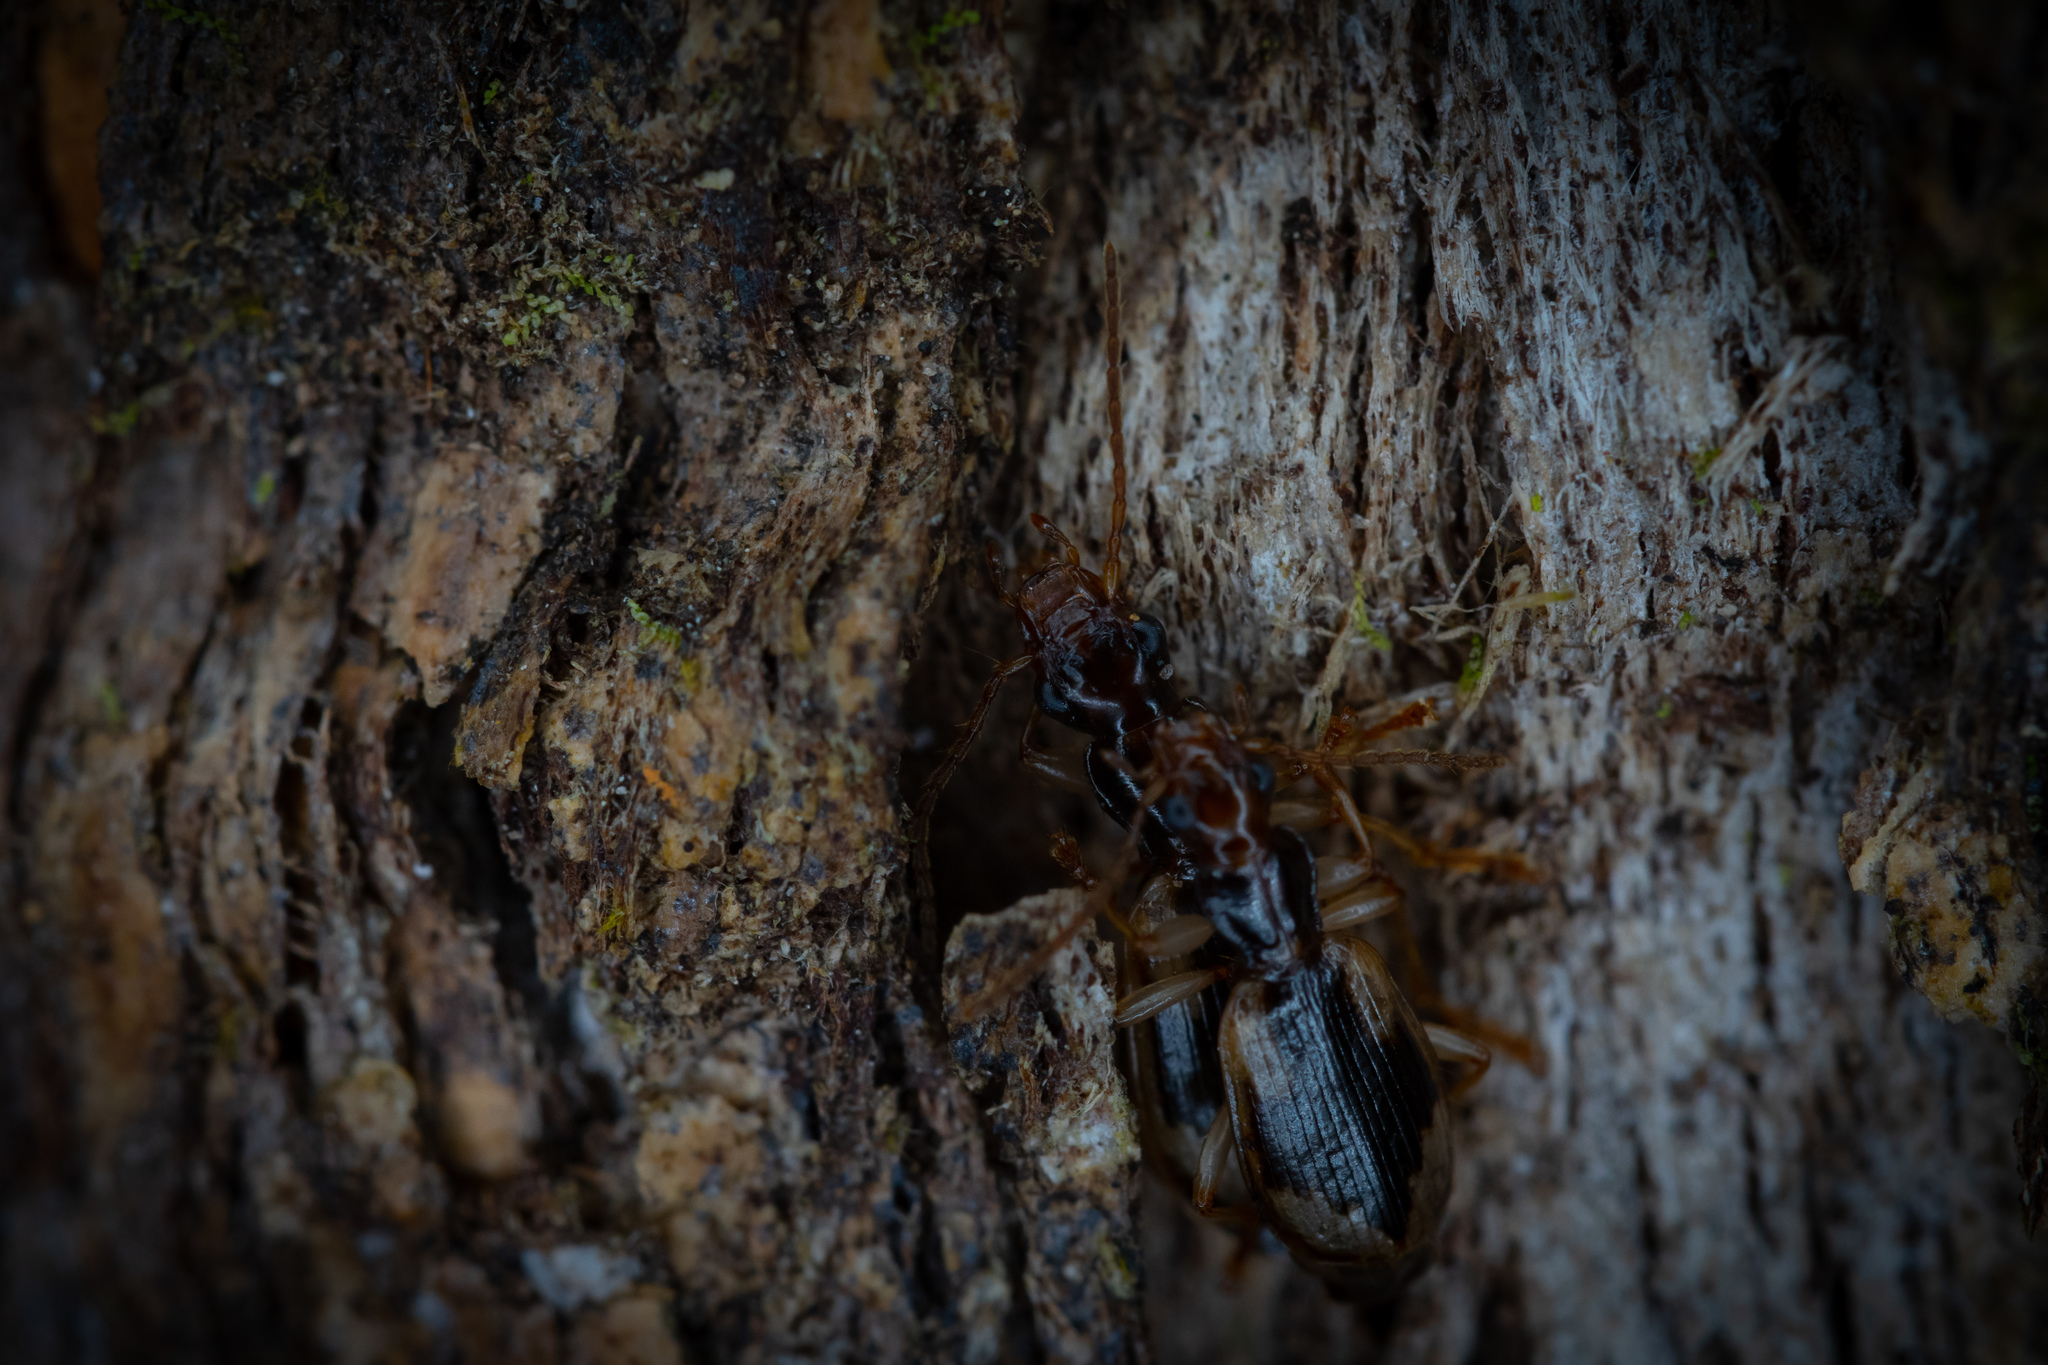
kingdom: Animalia
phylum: Arthropoda
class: Insecta
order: Coleoptera
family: Carabidae
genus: Demetrida
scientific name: Demetrida nasuta
